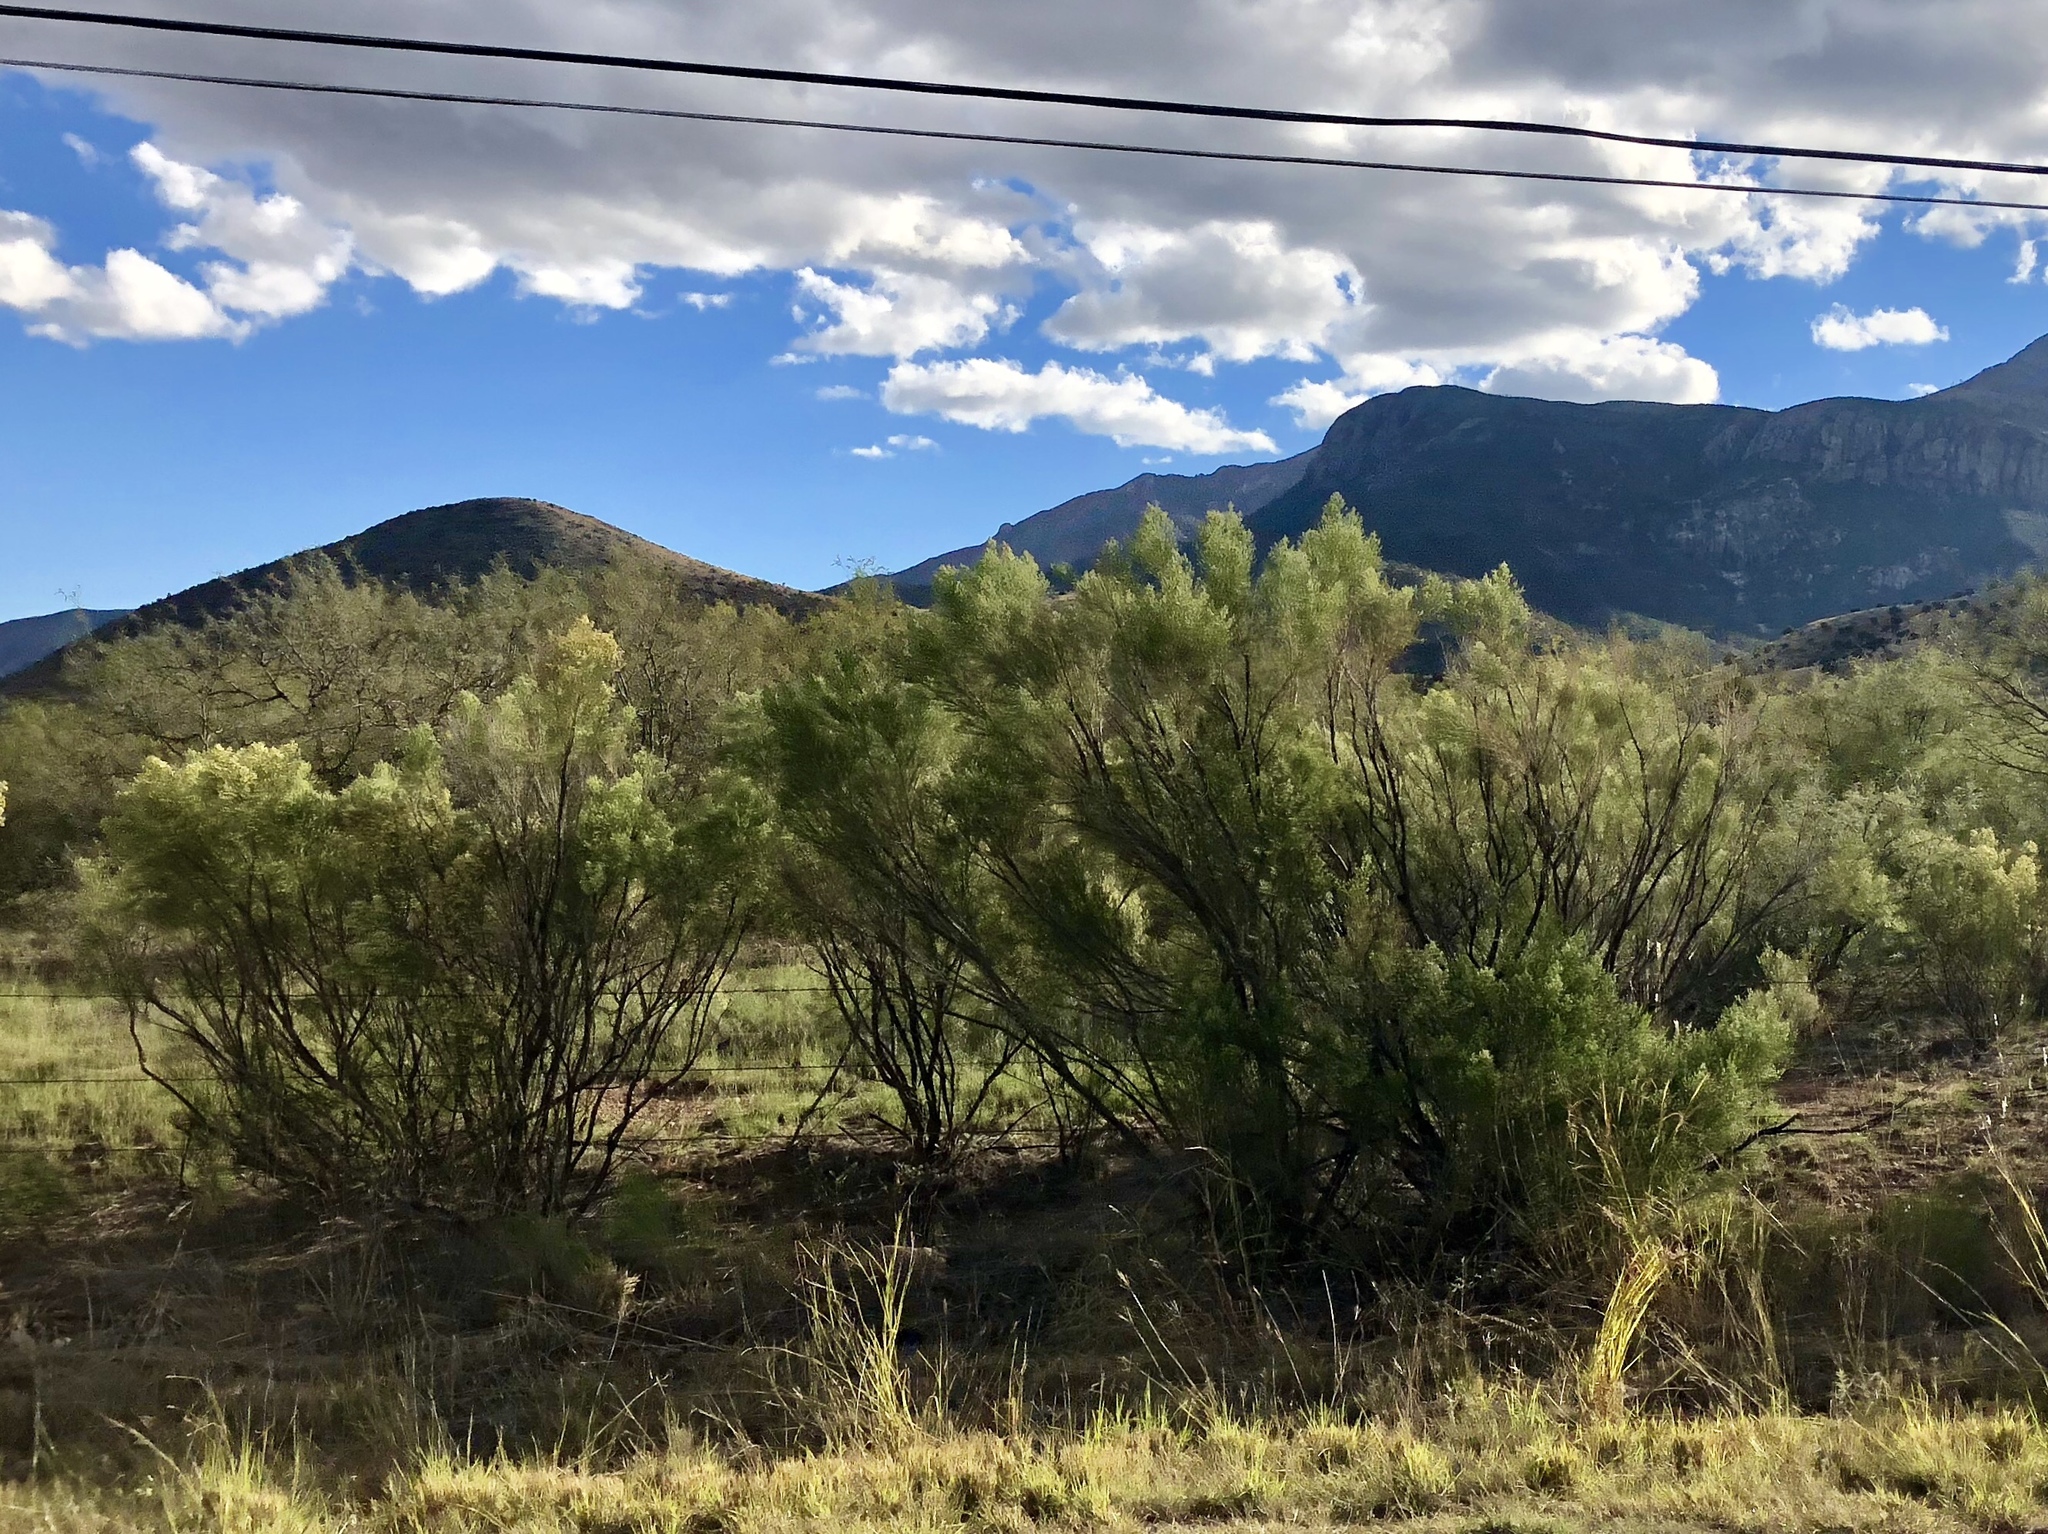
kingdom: Plantae
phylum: Tracheophyta
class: Magnoliopsida
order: Asterales
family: Asteraceae
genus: Baccharis
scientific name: Baccharis sarothroides
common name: Desert-broom
